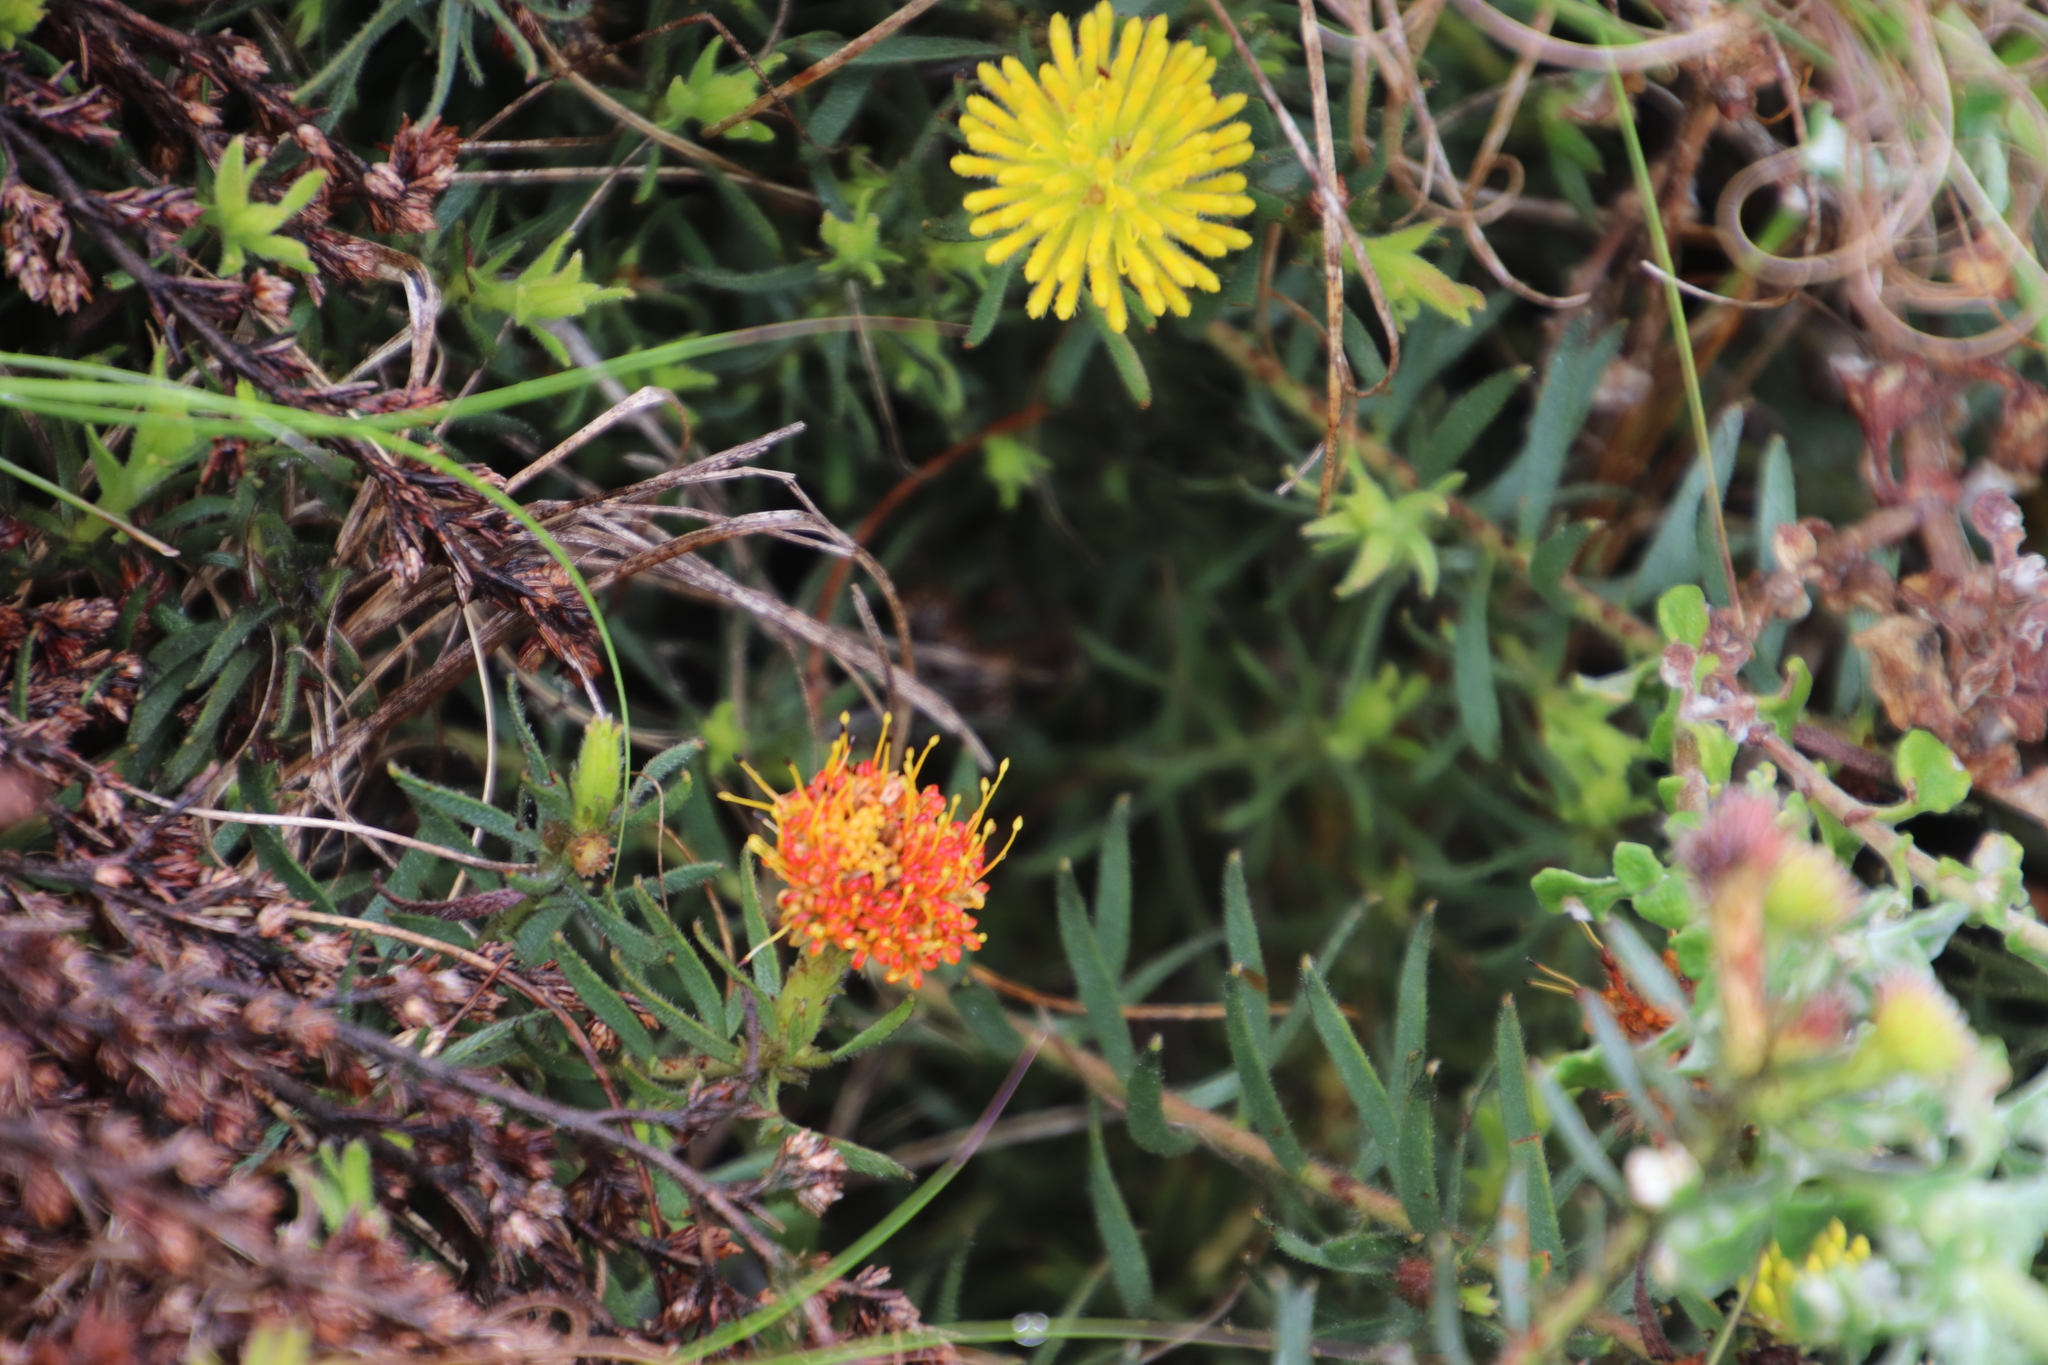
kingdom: Plantae
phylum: Tracheophyta
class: Magnoliopsida
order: Proteales
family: Proteaceae
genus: Leucospermum
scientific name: Leucospermum prostratum
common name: Yellow-trailing pincushion
